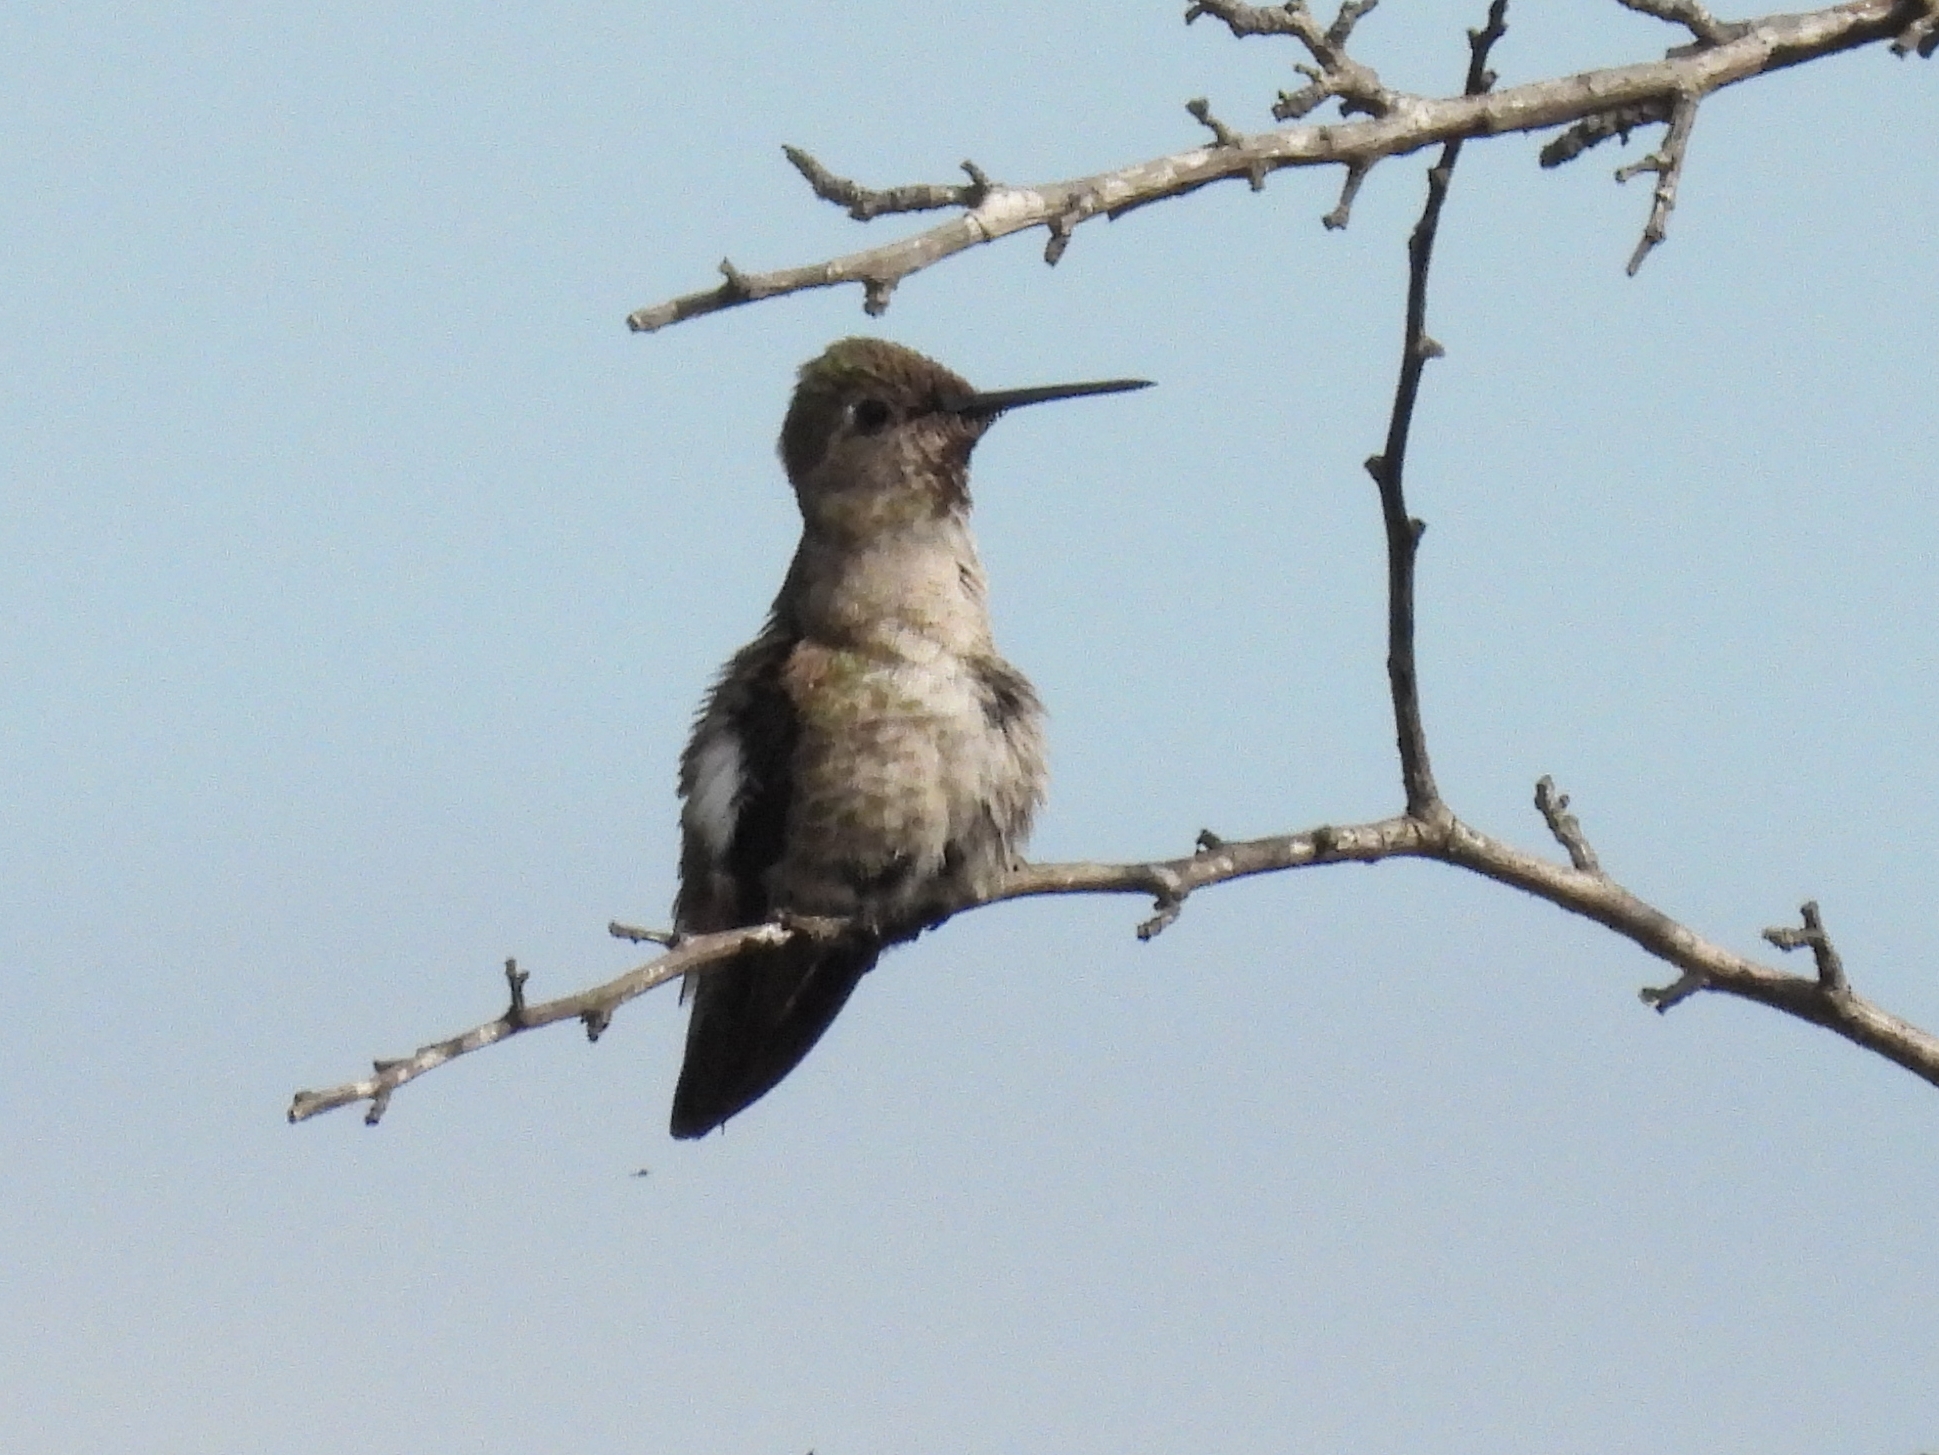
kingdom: Animalia
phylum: Chordata
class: Aves
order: Apodiformes
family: Trochilidae
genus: Calypte
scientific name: Calypte anna
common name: Anna's hummingbird
